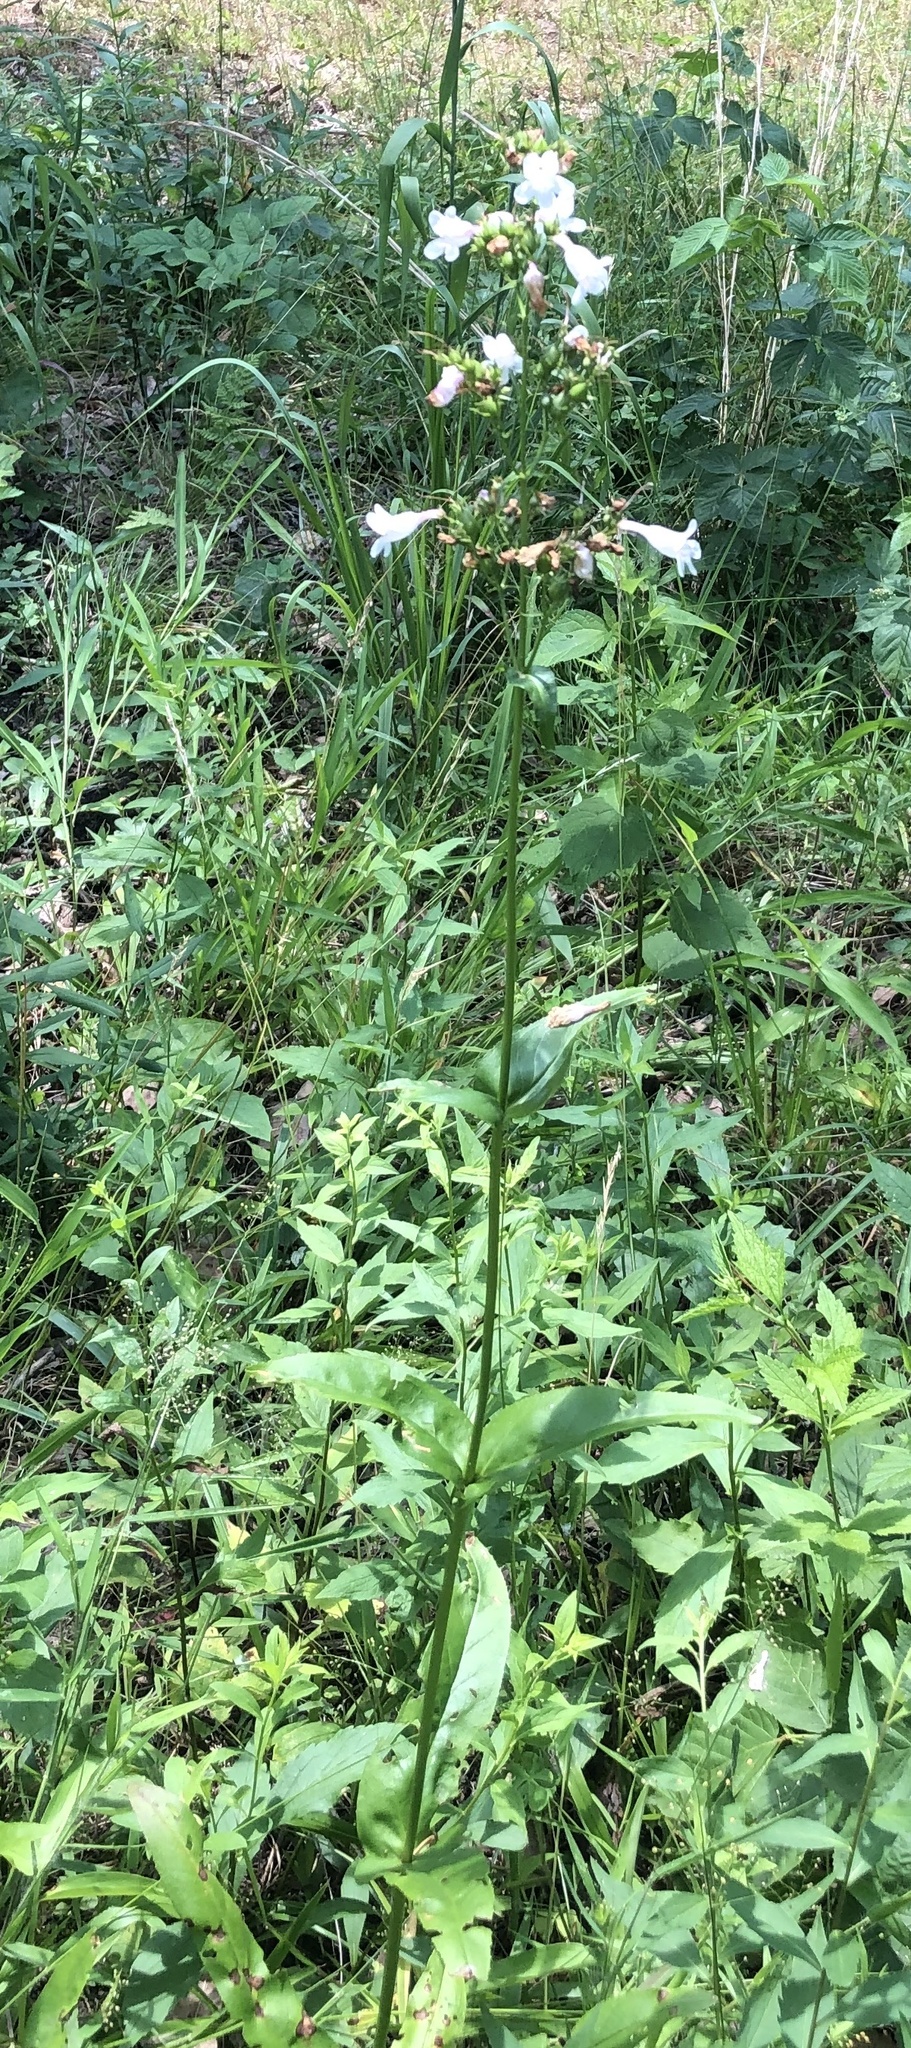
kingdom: Plantae
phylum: Tracheophyta
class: Magnoliopsida
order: Lamiales
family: Plantaginaceae
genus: Penstemon
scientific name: Penstemon digitalis
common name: Foxglove beardtongue
